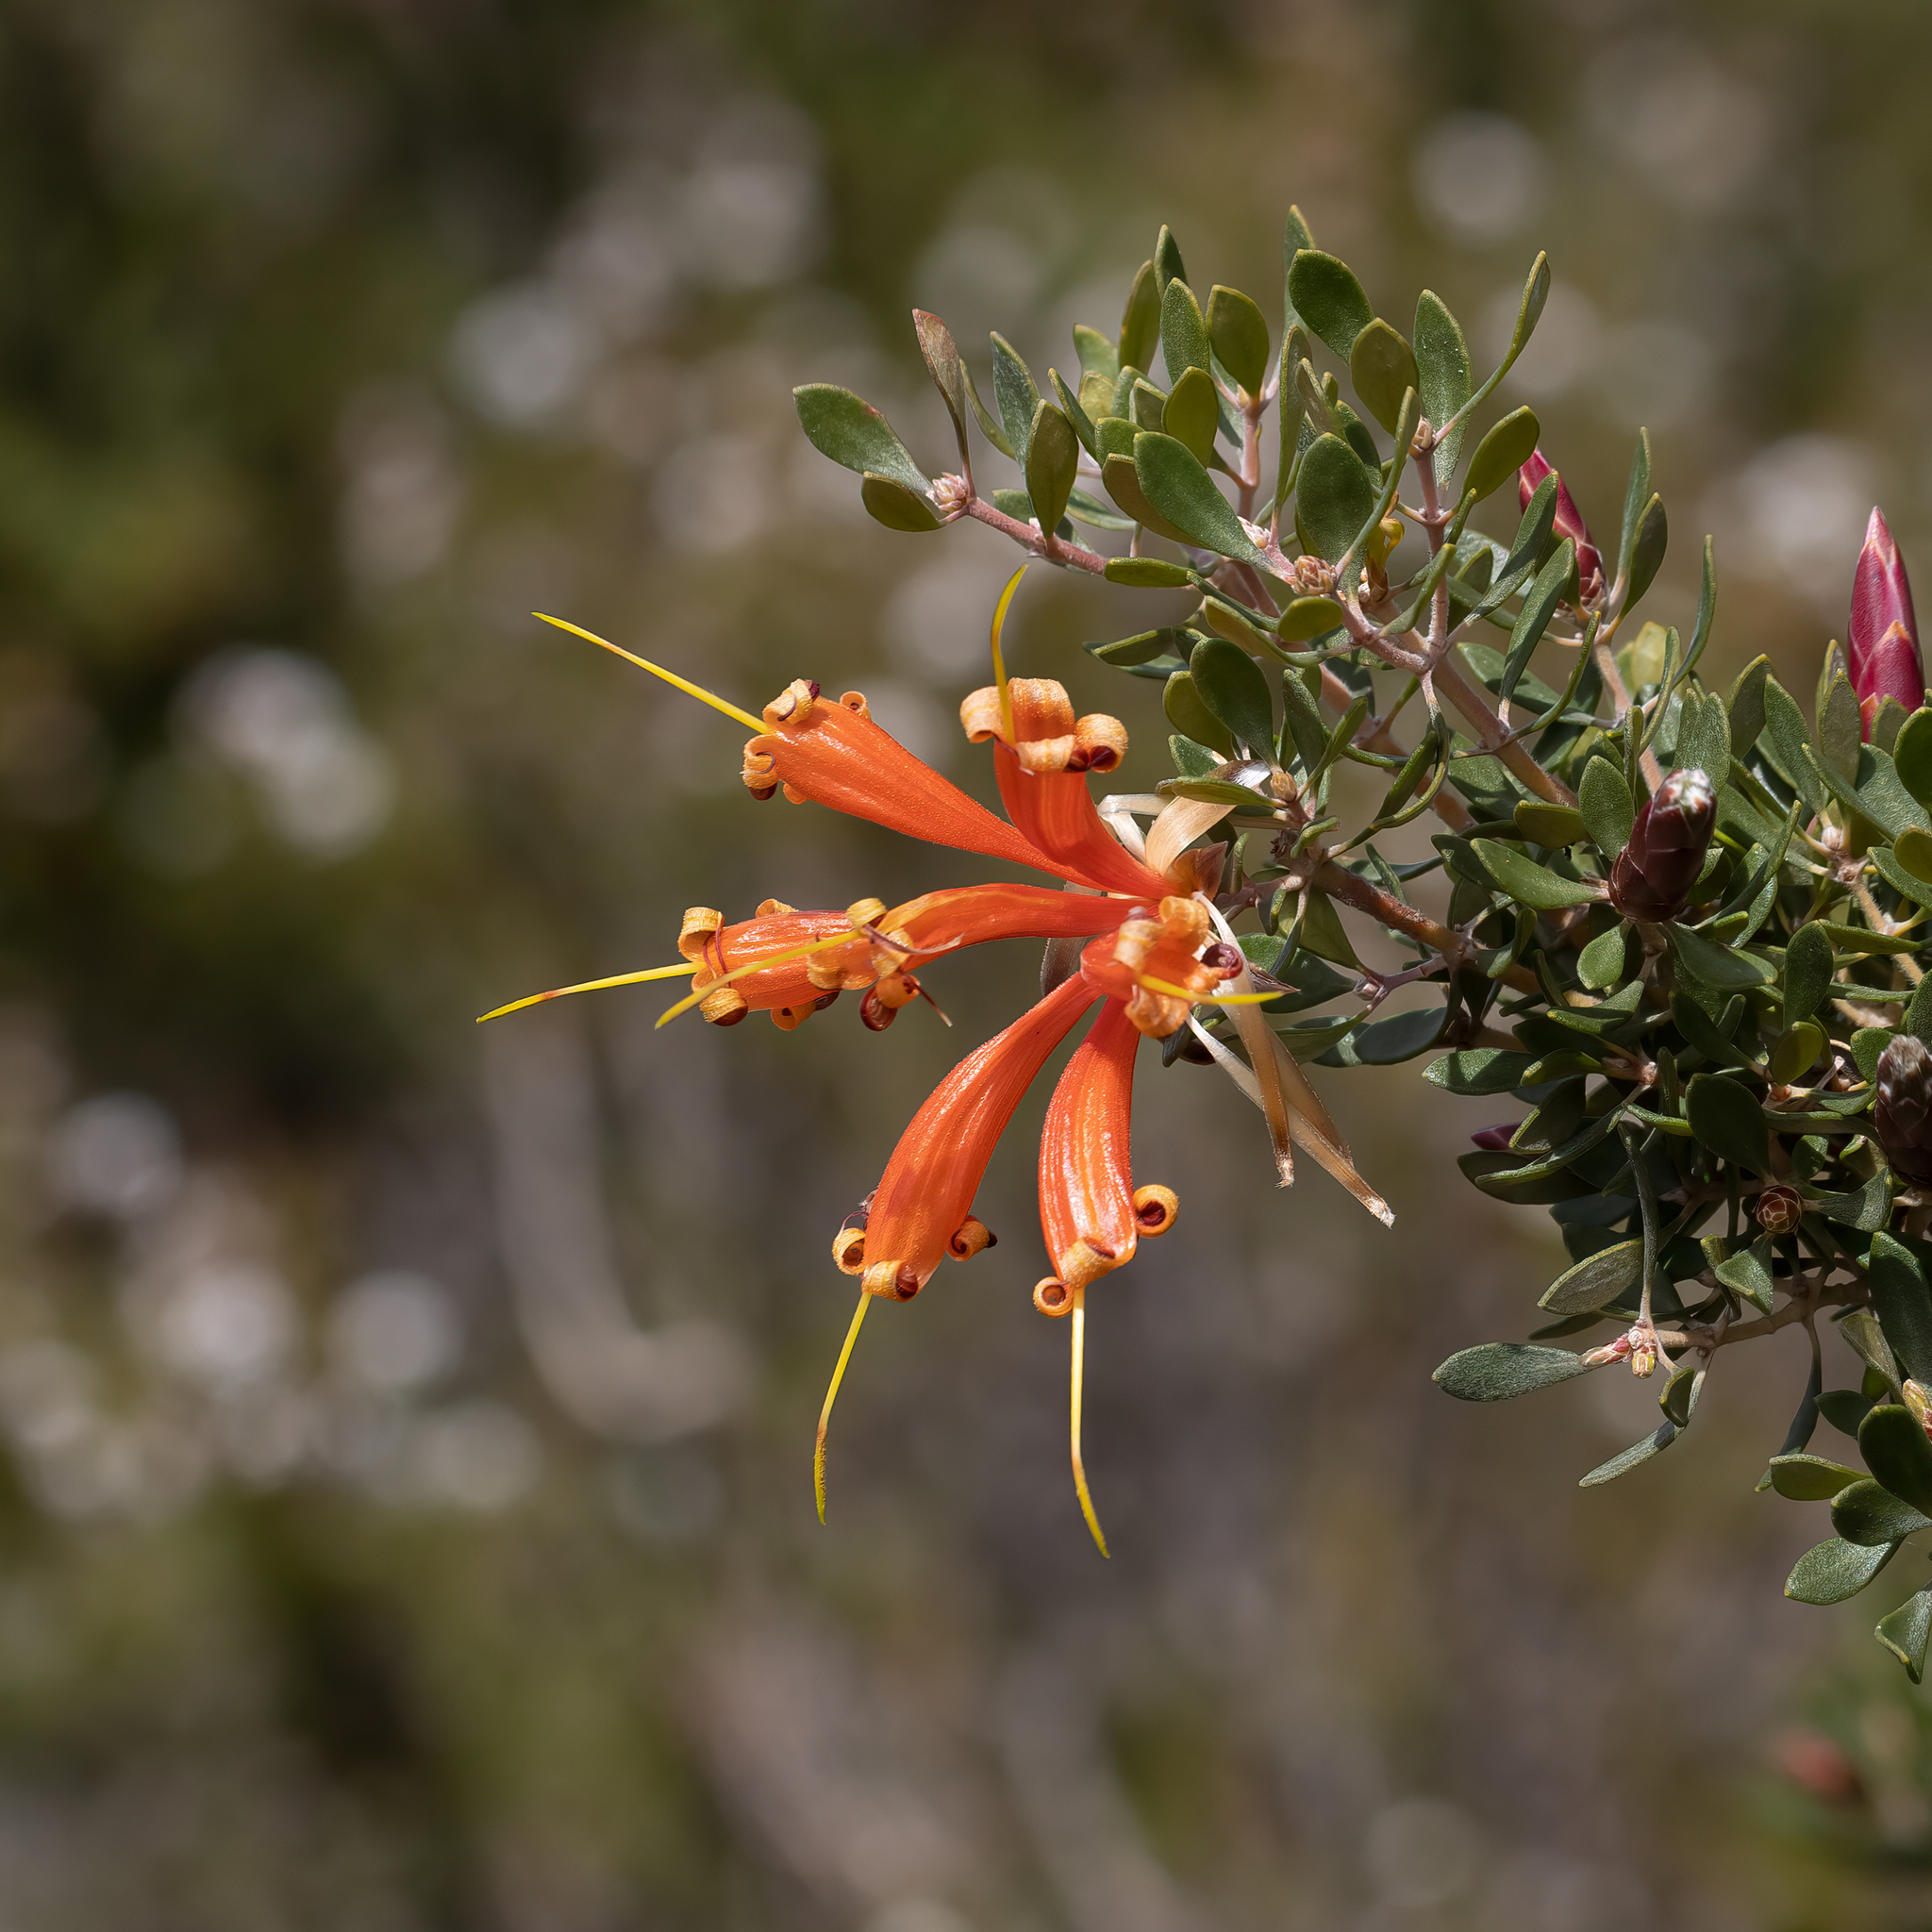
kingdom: Plantae
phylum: Tracheophyta
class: Magnoliopsida
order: Proteales
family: Proteaceae
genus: Lambertia
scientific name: Lambertia inermis
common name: Chittick
